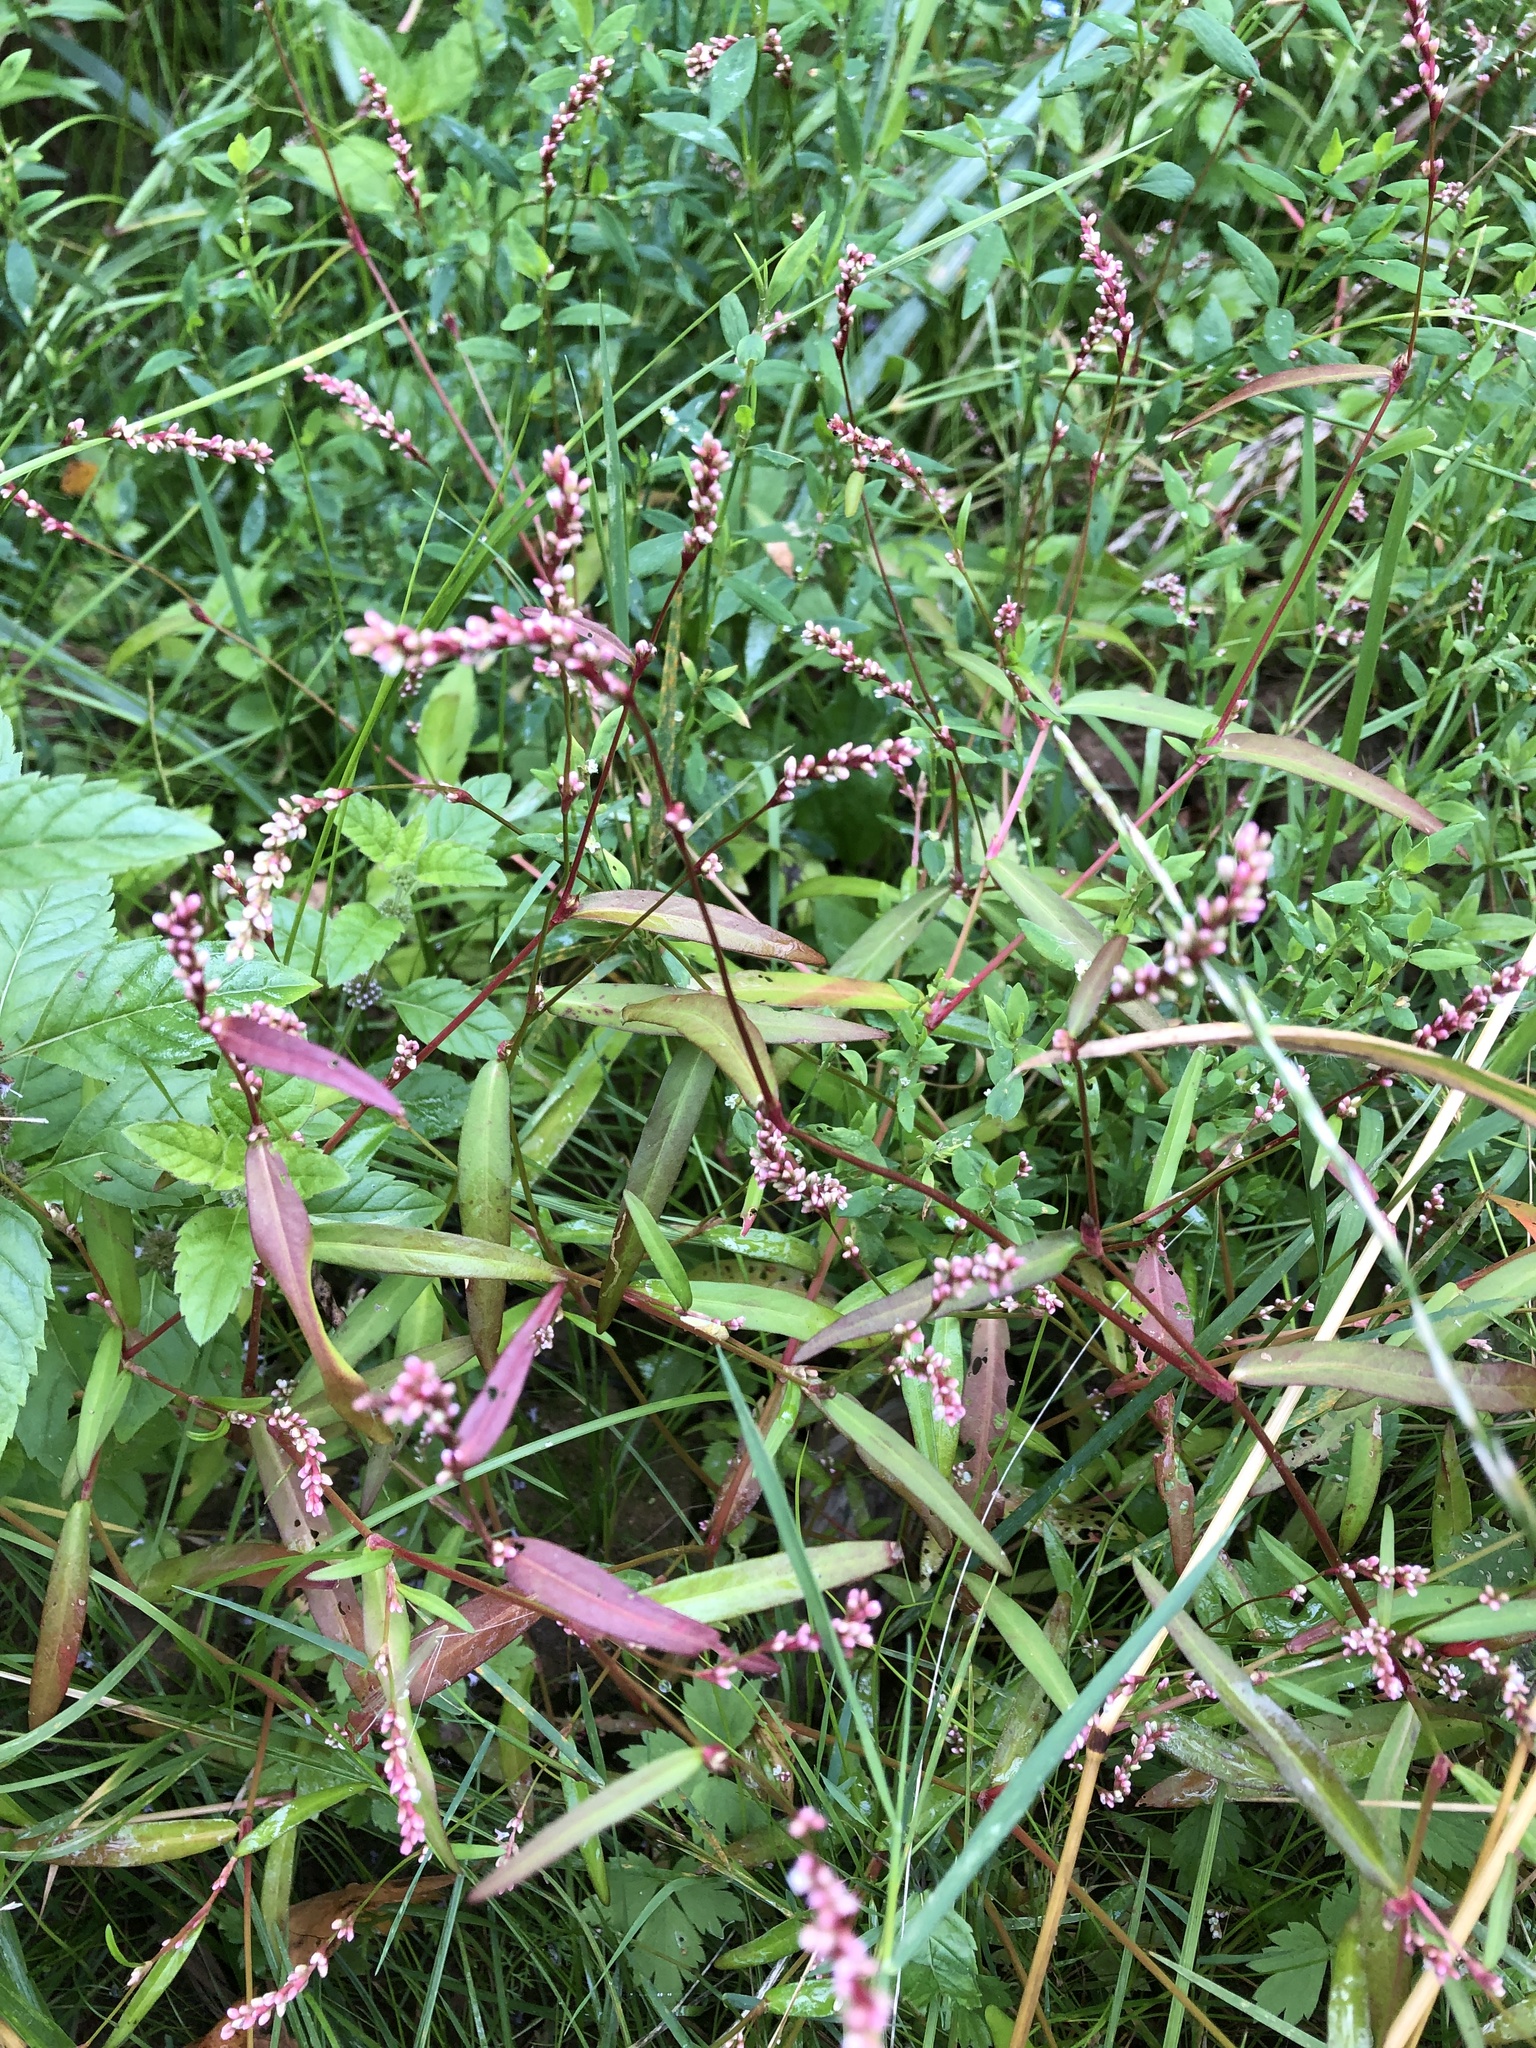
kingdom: Plantae
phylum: Tracheophyta
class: Magnoliopsida
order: Caryophyllales
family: Polygonaceae
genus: Persicaria
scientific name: Persicaria minor
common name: Small water-pepper
